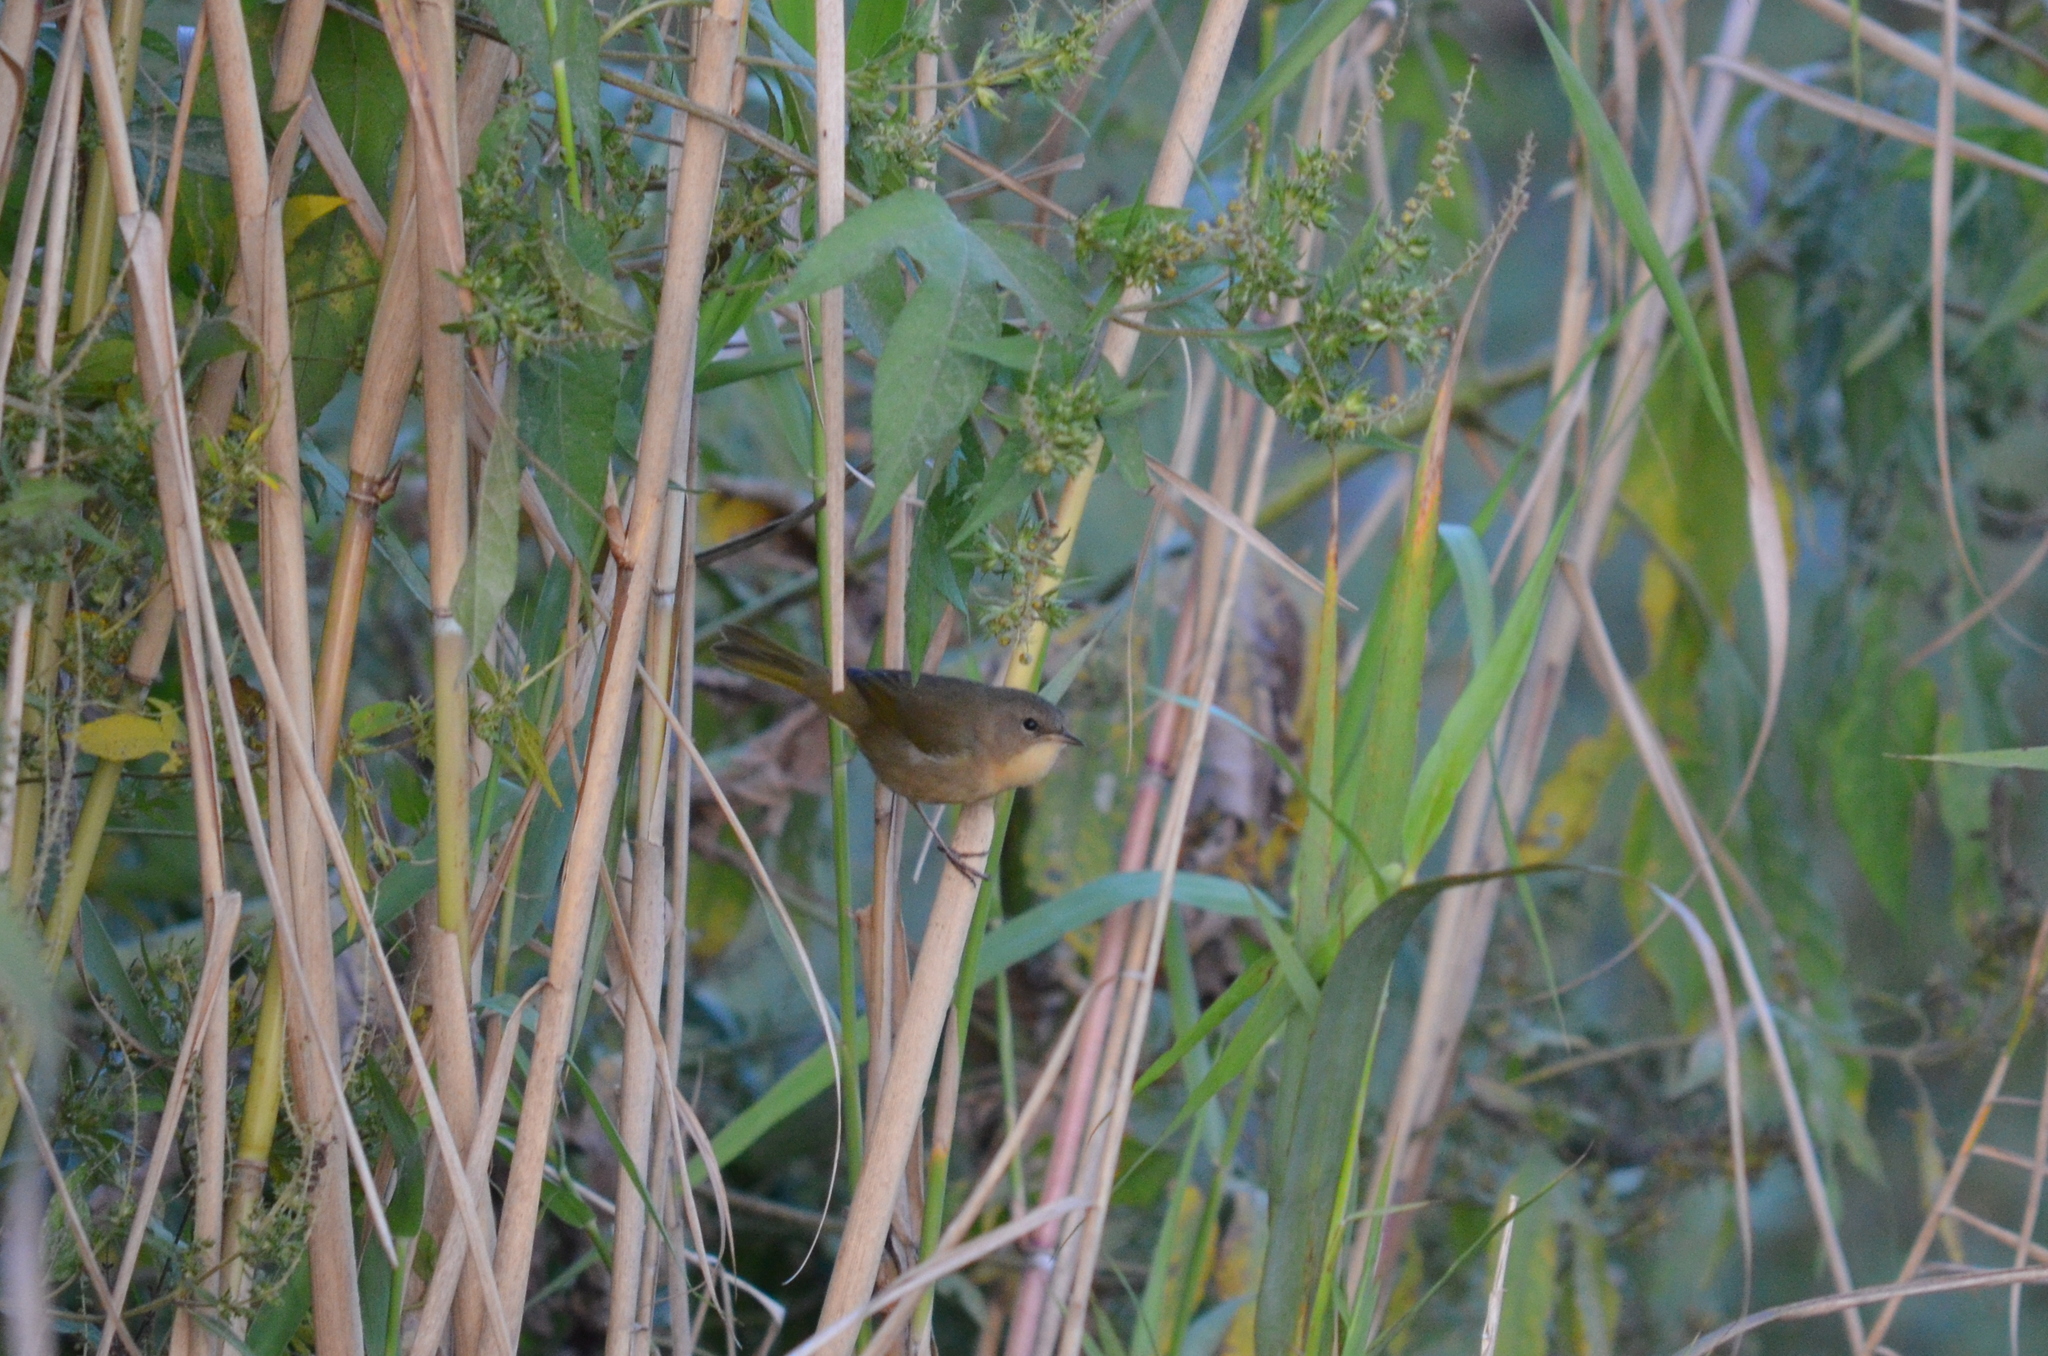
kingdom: Animalia
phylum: Chordata
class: Aves
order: Passeriformes
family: Parulidae
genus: Geothlypis
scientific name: Geothlypis trichas
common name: Common yellowthroat
